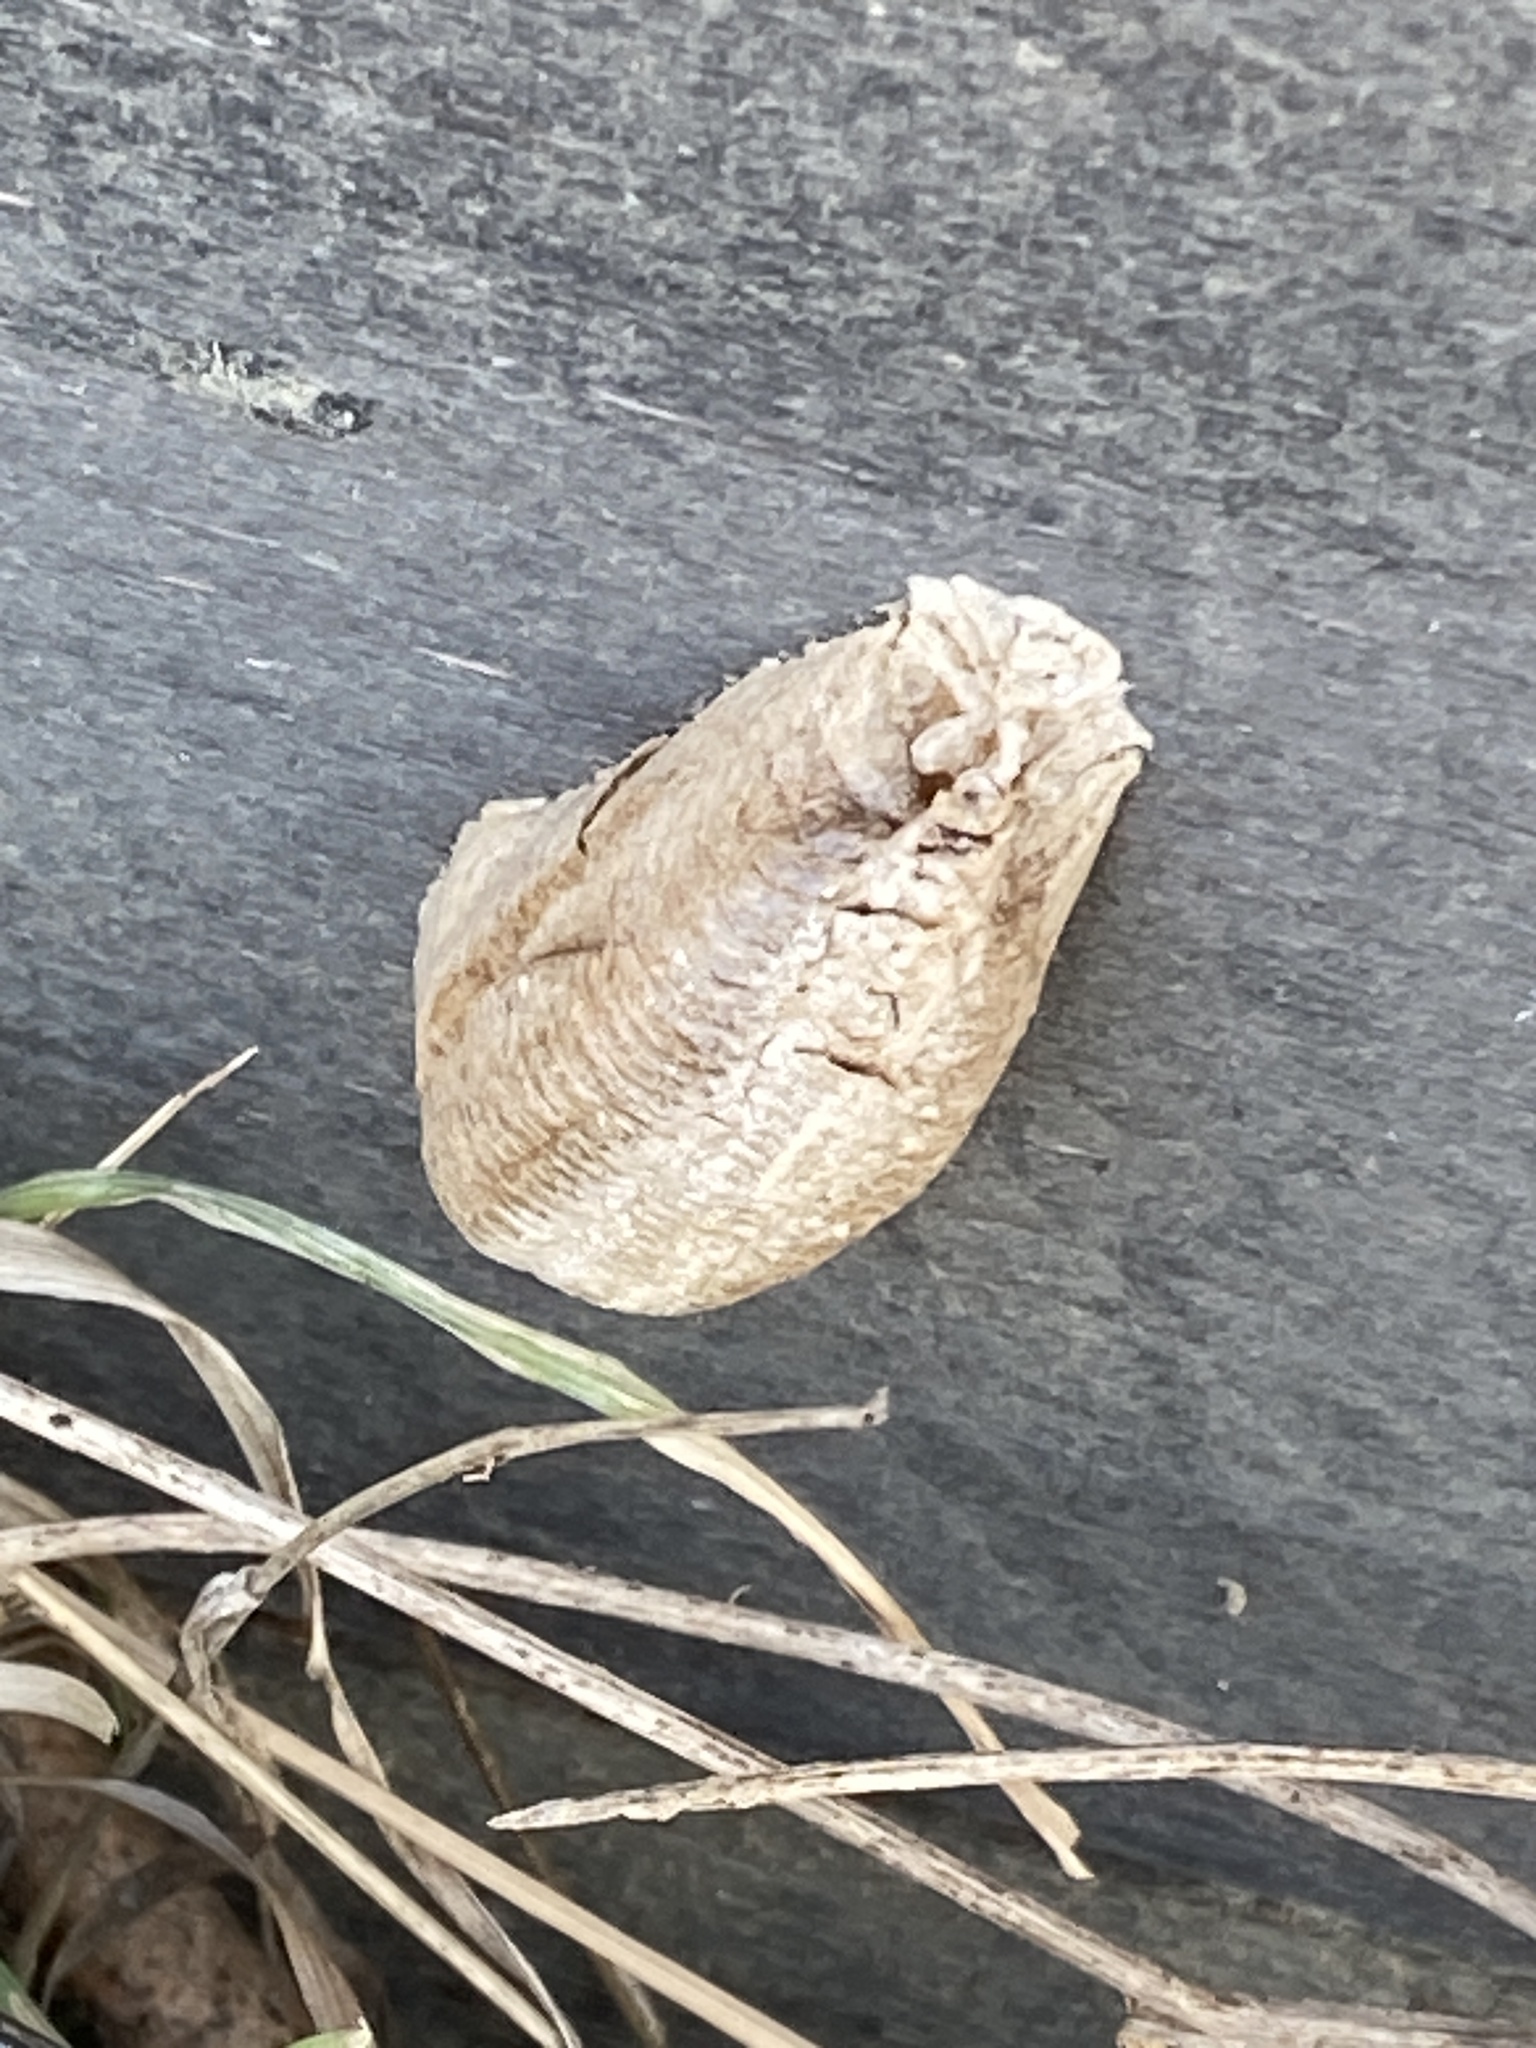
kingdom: Animalia
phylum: Arthropoda
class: Insecta
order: Mantodea
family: Mantidae
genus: Mantis
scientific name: Mantis religiosa
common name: Praying mantis
